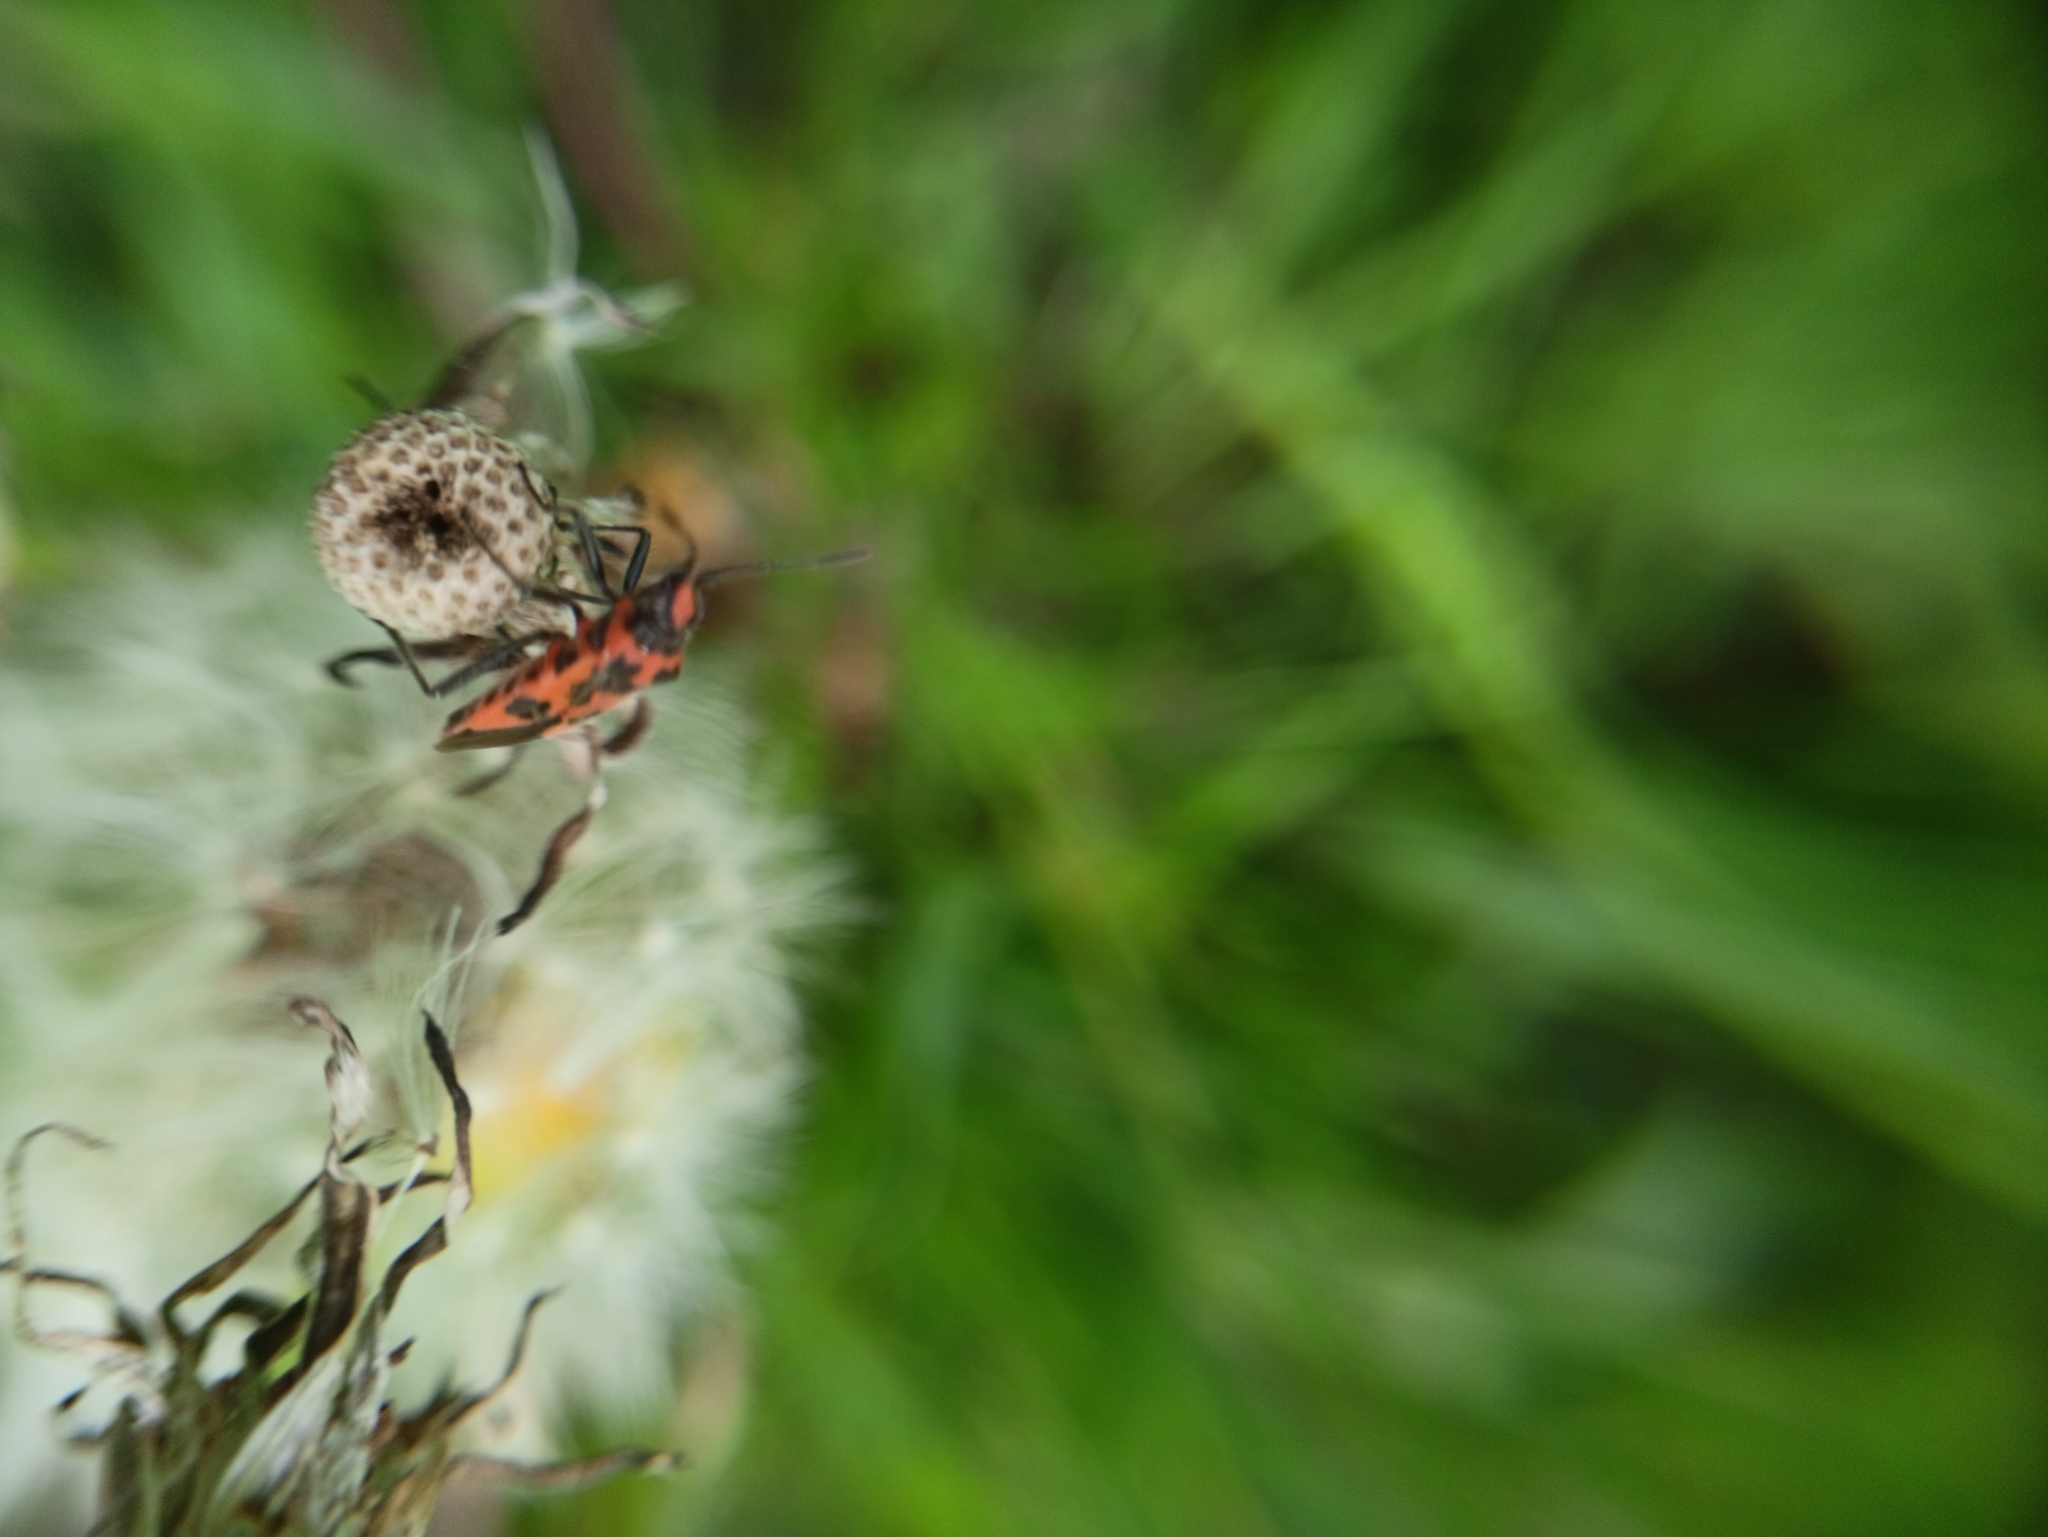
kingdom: Animalia
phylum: Arthropoda
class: Insecta
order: Hemiptera
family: Rhopalidae
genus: Corizus
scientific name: Corizus hyoscyami
